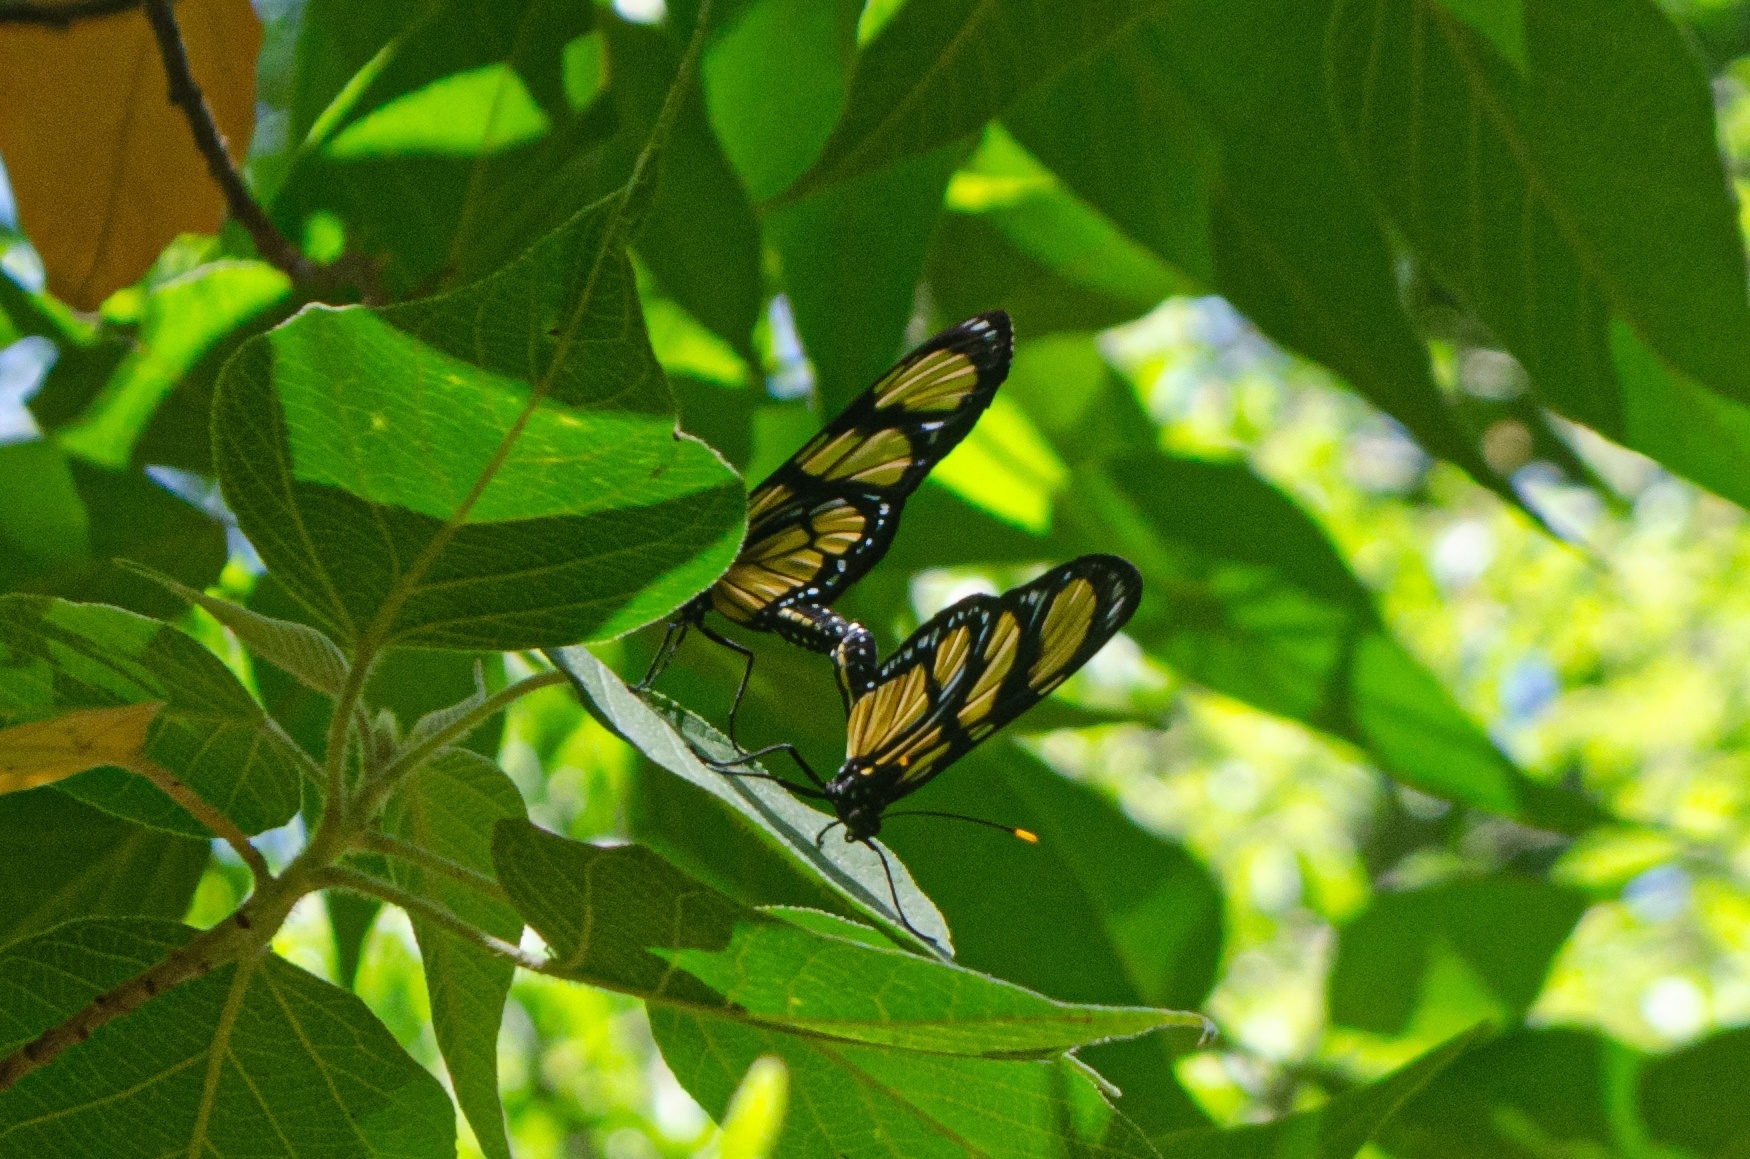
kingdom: Animalia
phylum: Arthropoda
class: Insecta
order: Lepidoptera
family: Nymphalidae
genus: Methona
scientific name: Methona themisto
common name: Themisto amberwing
